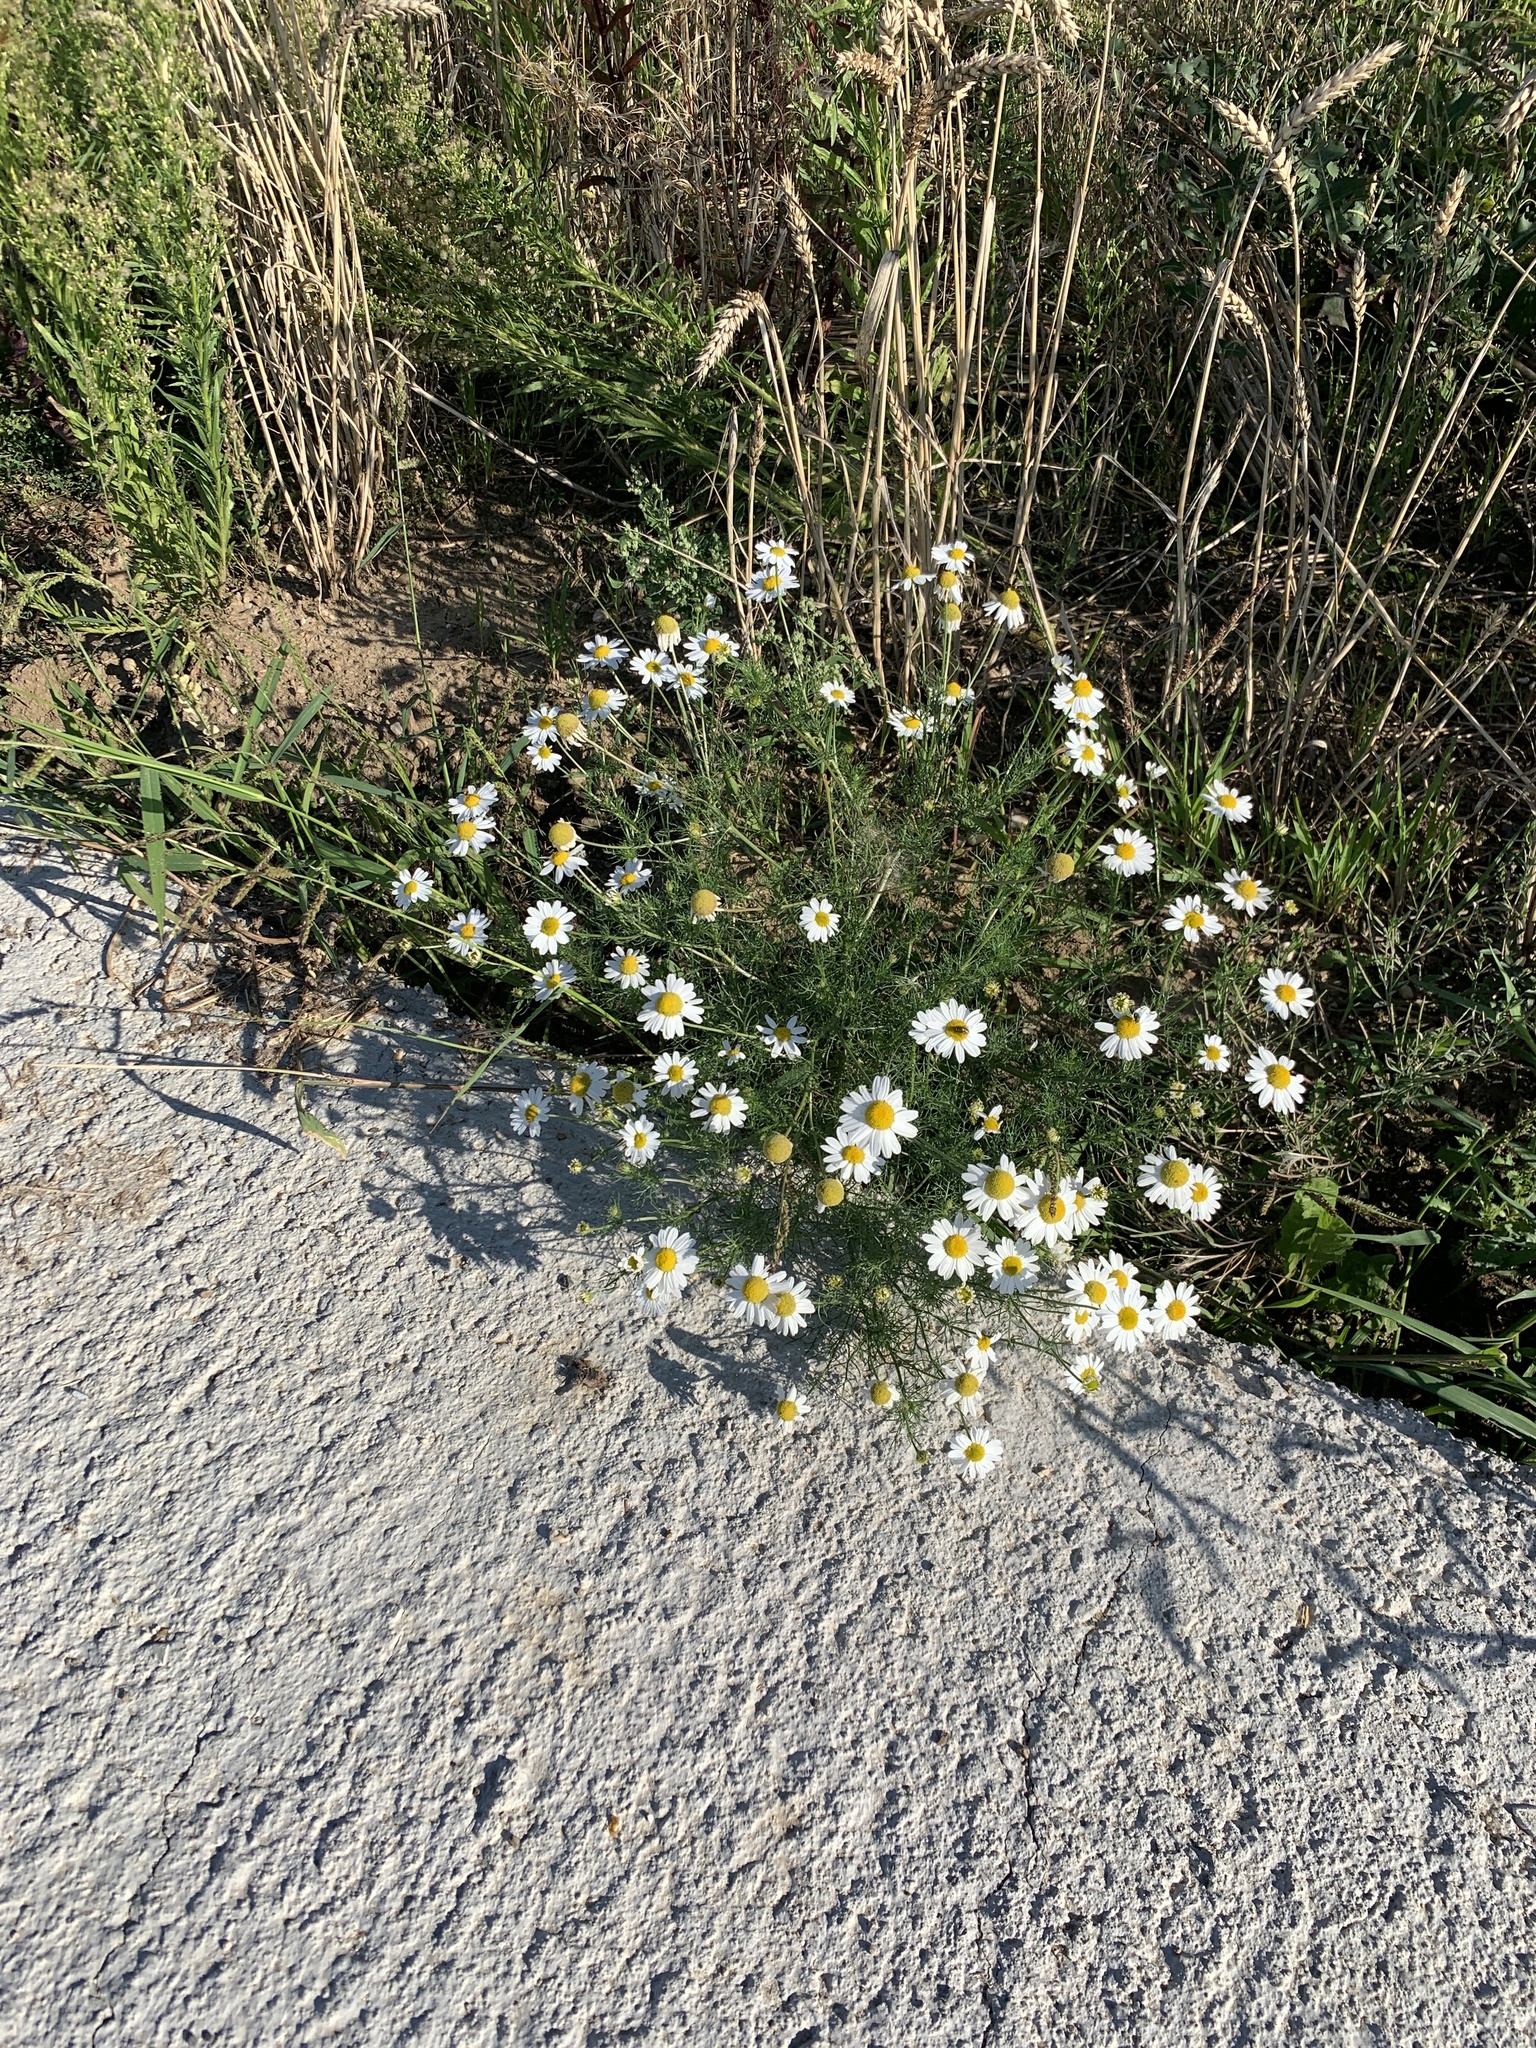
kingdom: Plantae
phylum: Tracheophyta
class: Magnoliopsida
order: Asterales
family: Asteraceae
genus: Tripleurospermum
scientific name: Tripleurospermum inodorum
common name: Scentless mayweed
